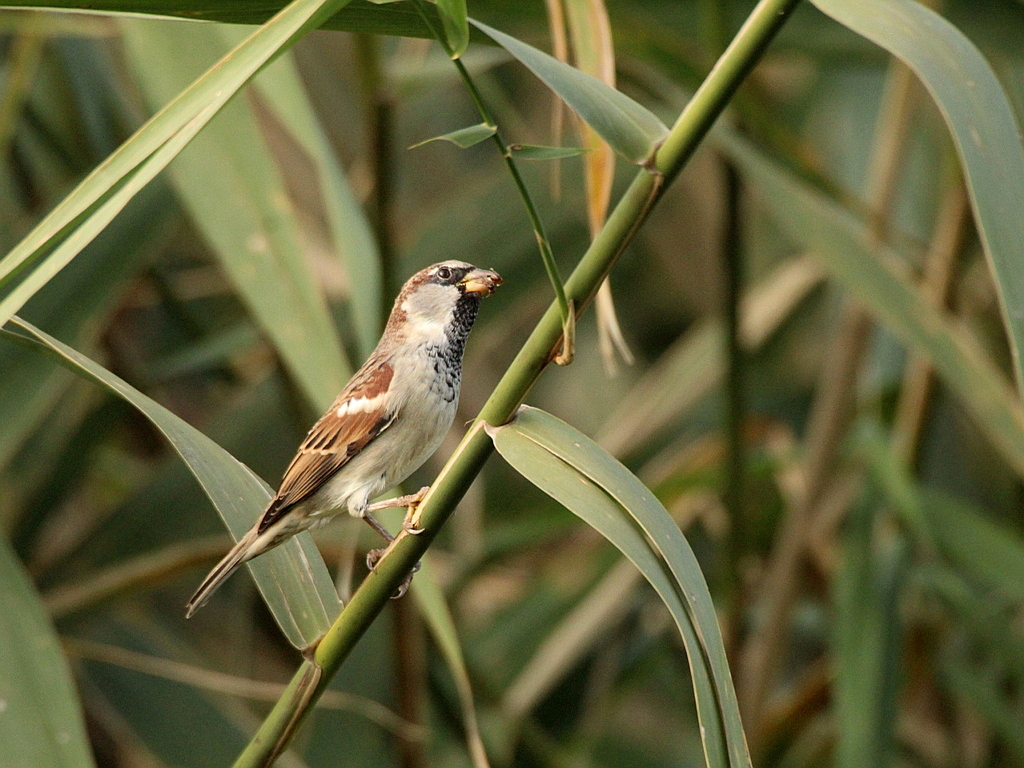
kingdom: Animalia
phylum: Chordata
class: Aves
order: Passeriformes
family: Passeridae
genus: Passer
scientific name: Passer domesticus
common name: House sparrow
